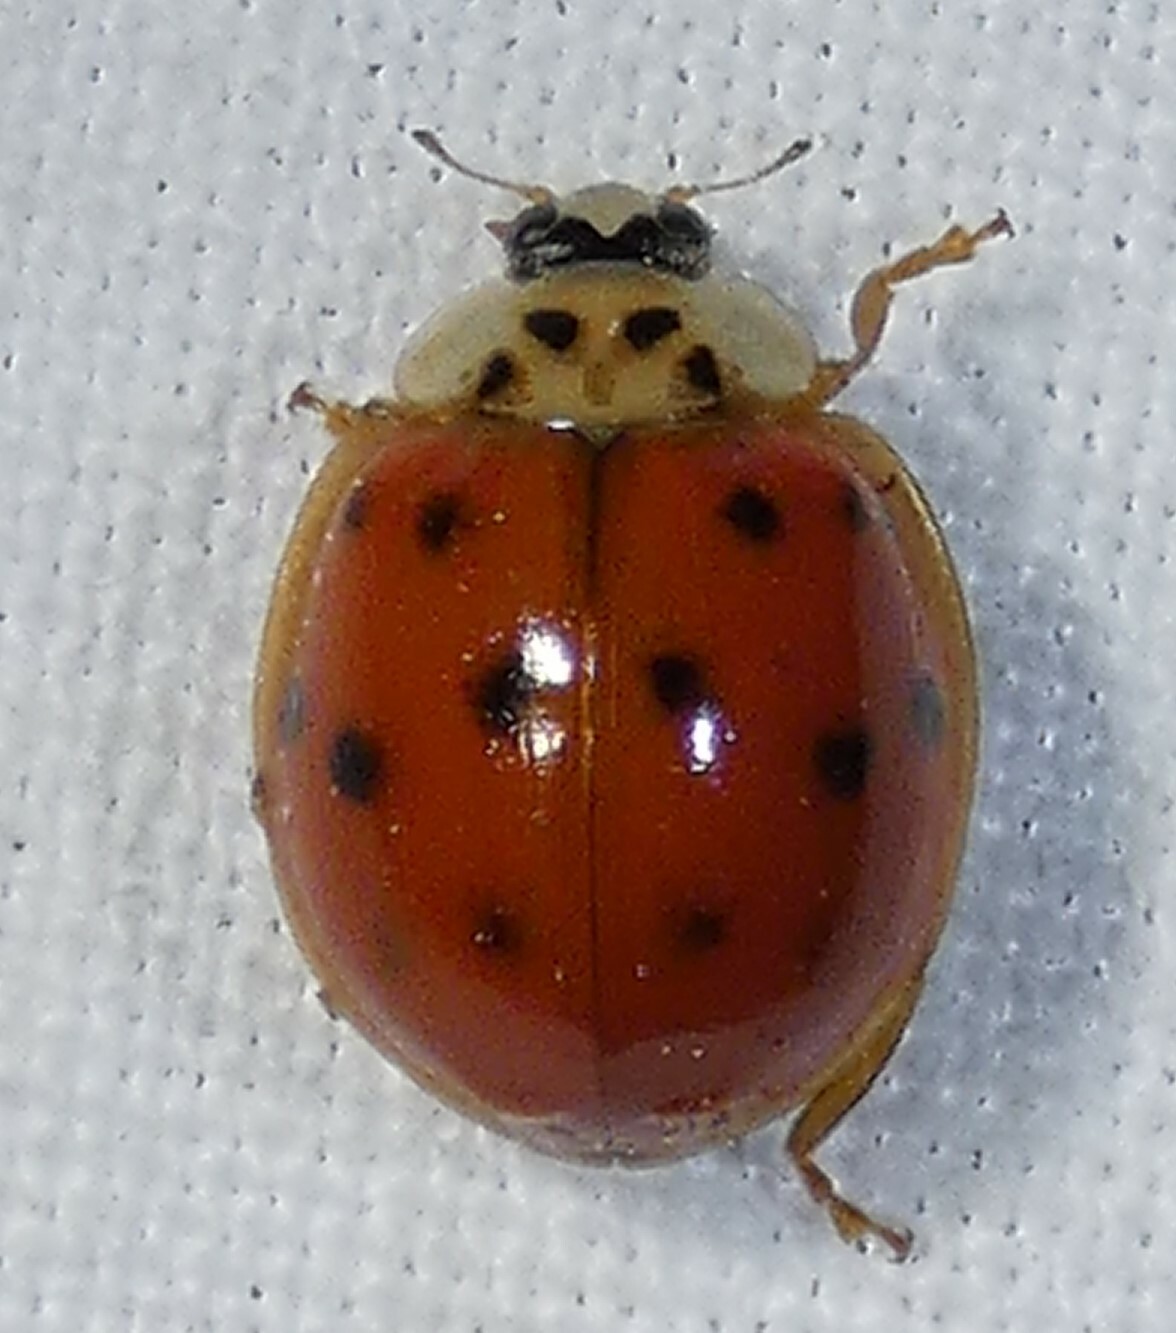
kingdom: Animalia
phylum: Arthropoda
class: Insecta
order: Coleoptera
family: Coccinellidae
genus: Harmonia
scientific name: Harmonia axyridis
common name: Harlequin ladybird
